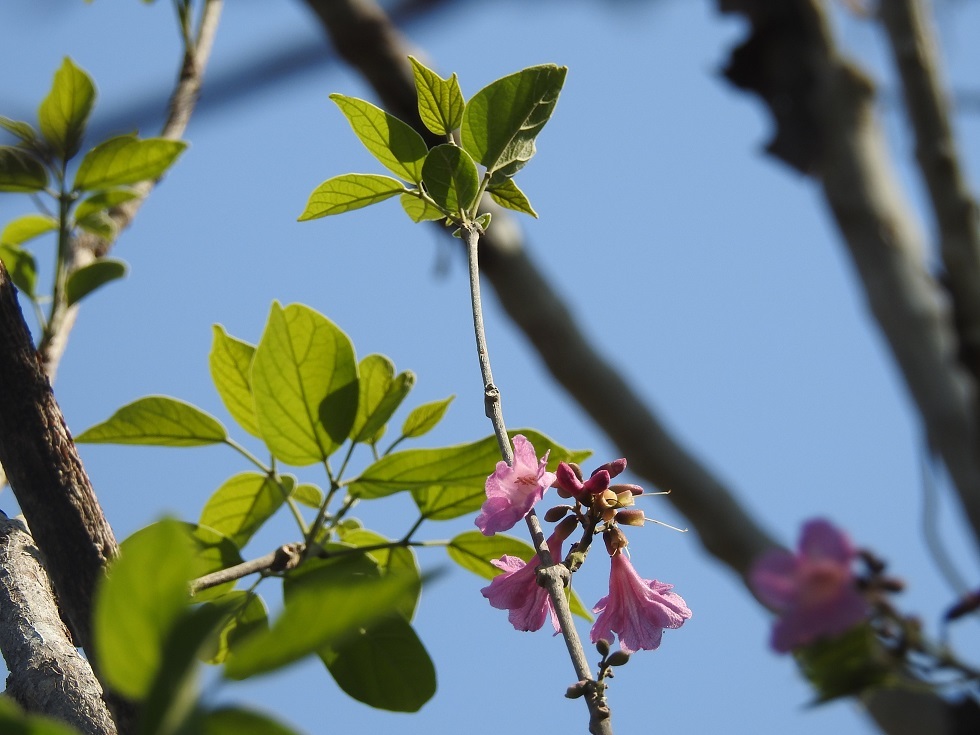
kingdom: Plantae
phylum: Tracheophyta
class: Magnoliopsida
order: Lamiales
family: Bignoniaceae
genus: Handroanthus
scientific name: Handroanthus impetiginosum
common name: Pink trumpet tree
